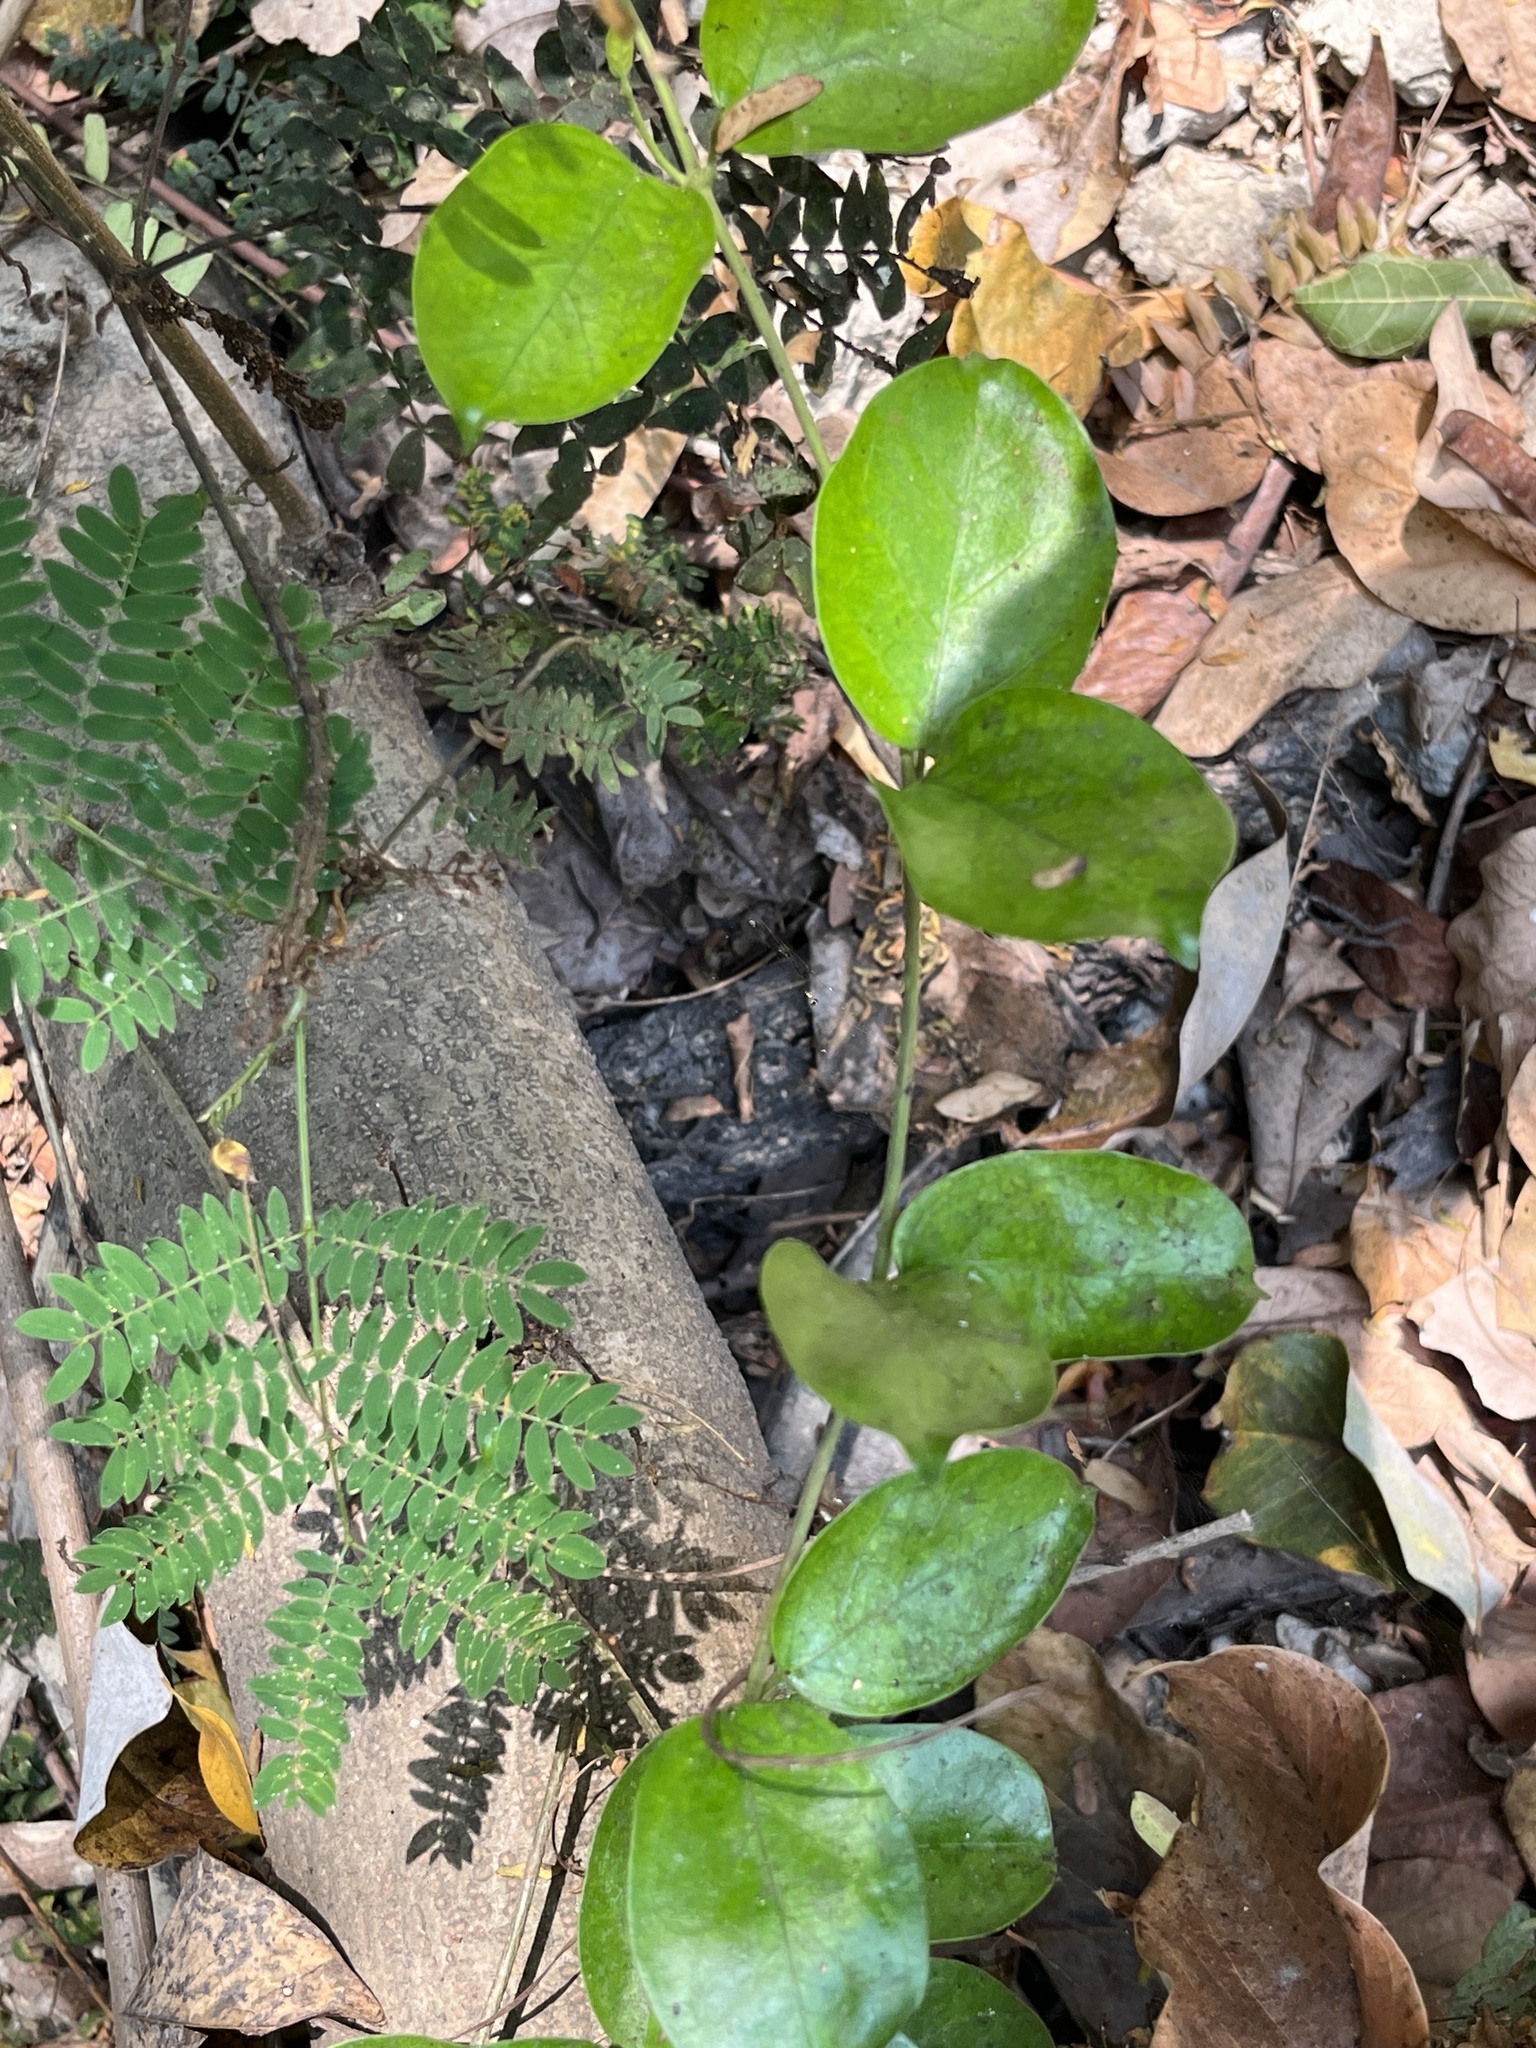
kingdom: Plantae
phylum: Tracheophyta
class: Magnoliopsida
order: Gentianales
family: Apocynaceae
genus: Vincetoxicum
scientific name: Vincetoxicum hirsutum
